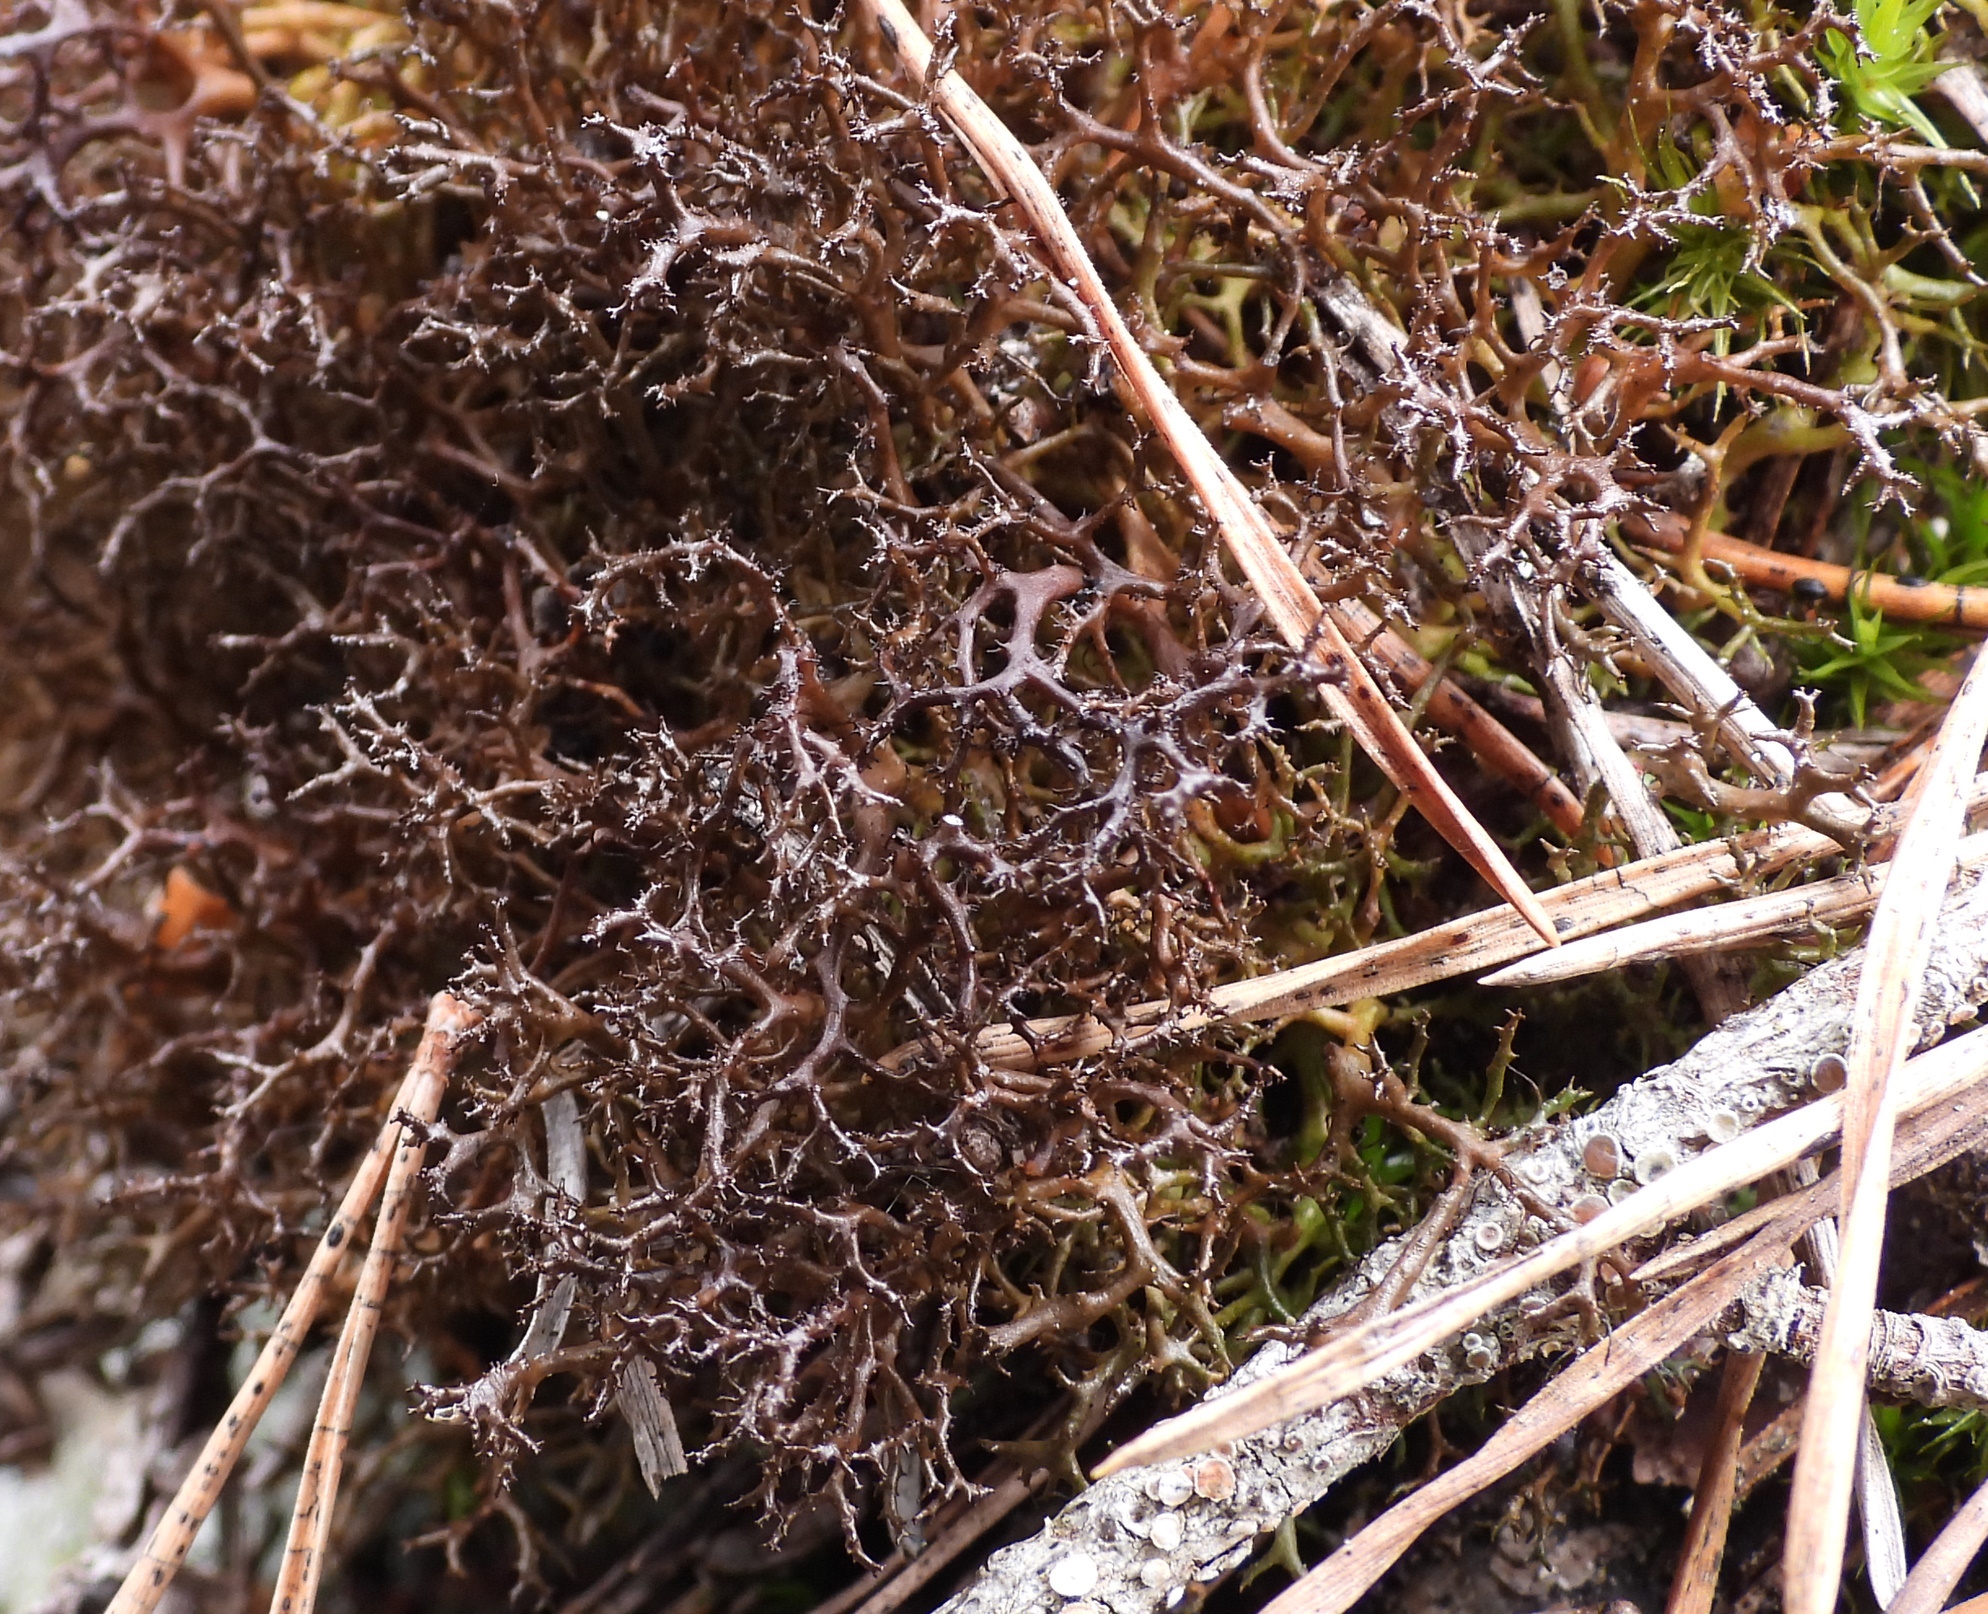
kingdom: Fungi
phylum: Ascomycota
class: Lecanoromycetes
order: Lecanorales
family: Parmeliaceae
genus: Cetraria
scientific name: Cetraria muricata
